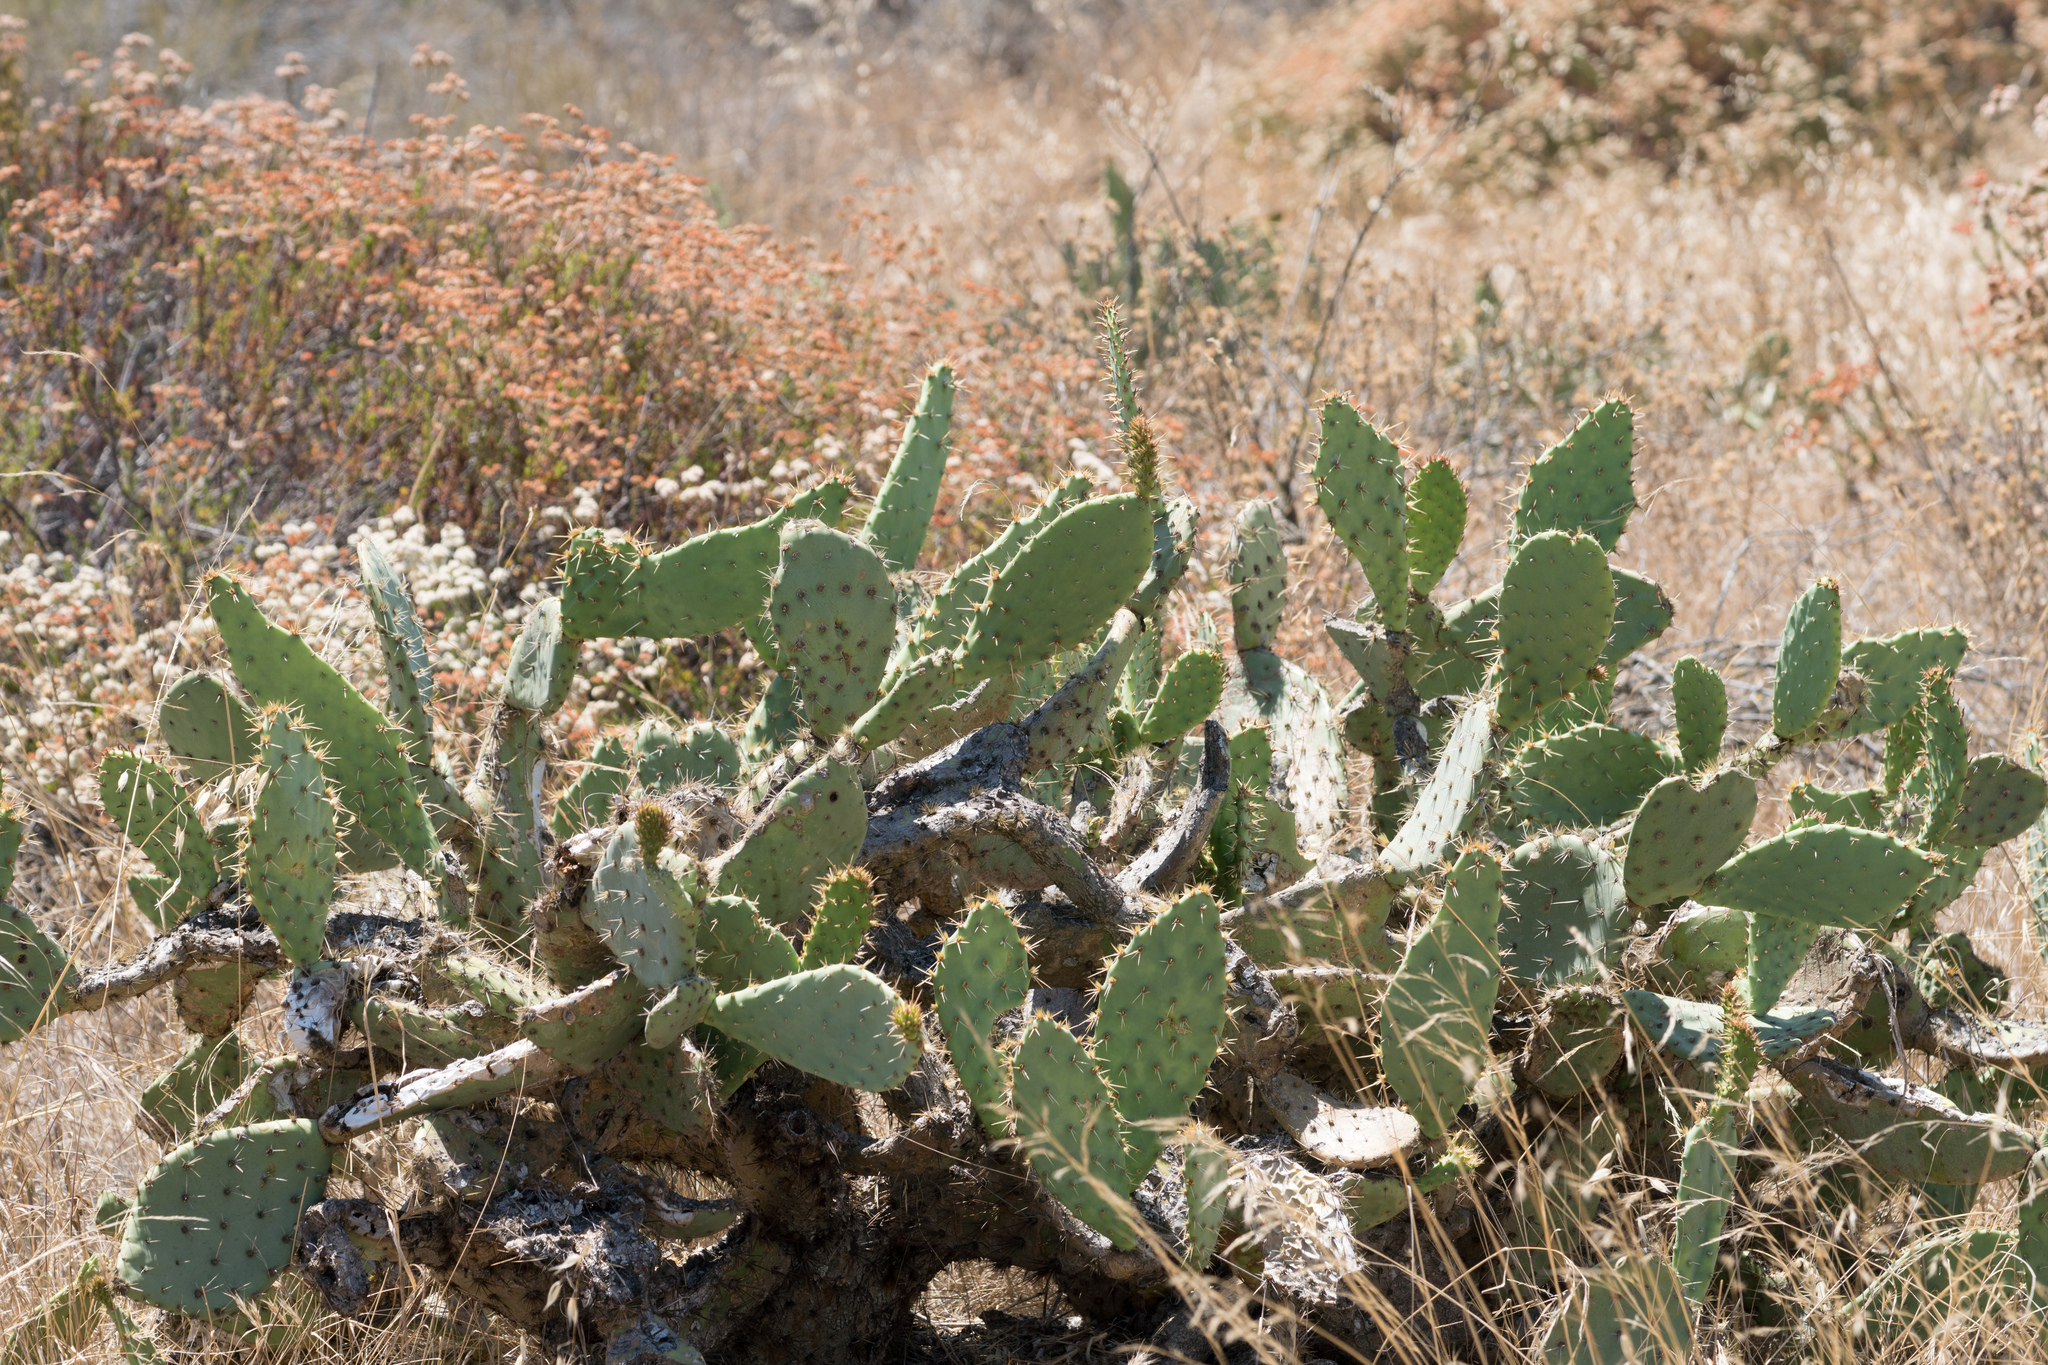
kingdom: Plantae
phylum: Tracheophyta
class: Magnoliopsida
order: Caryophyllales
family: Cactaceae
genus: Opuntia
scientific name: Opuntia
